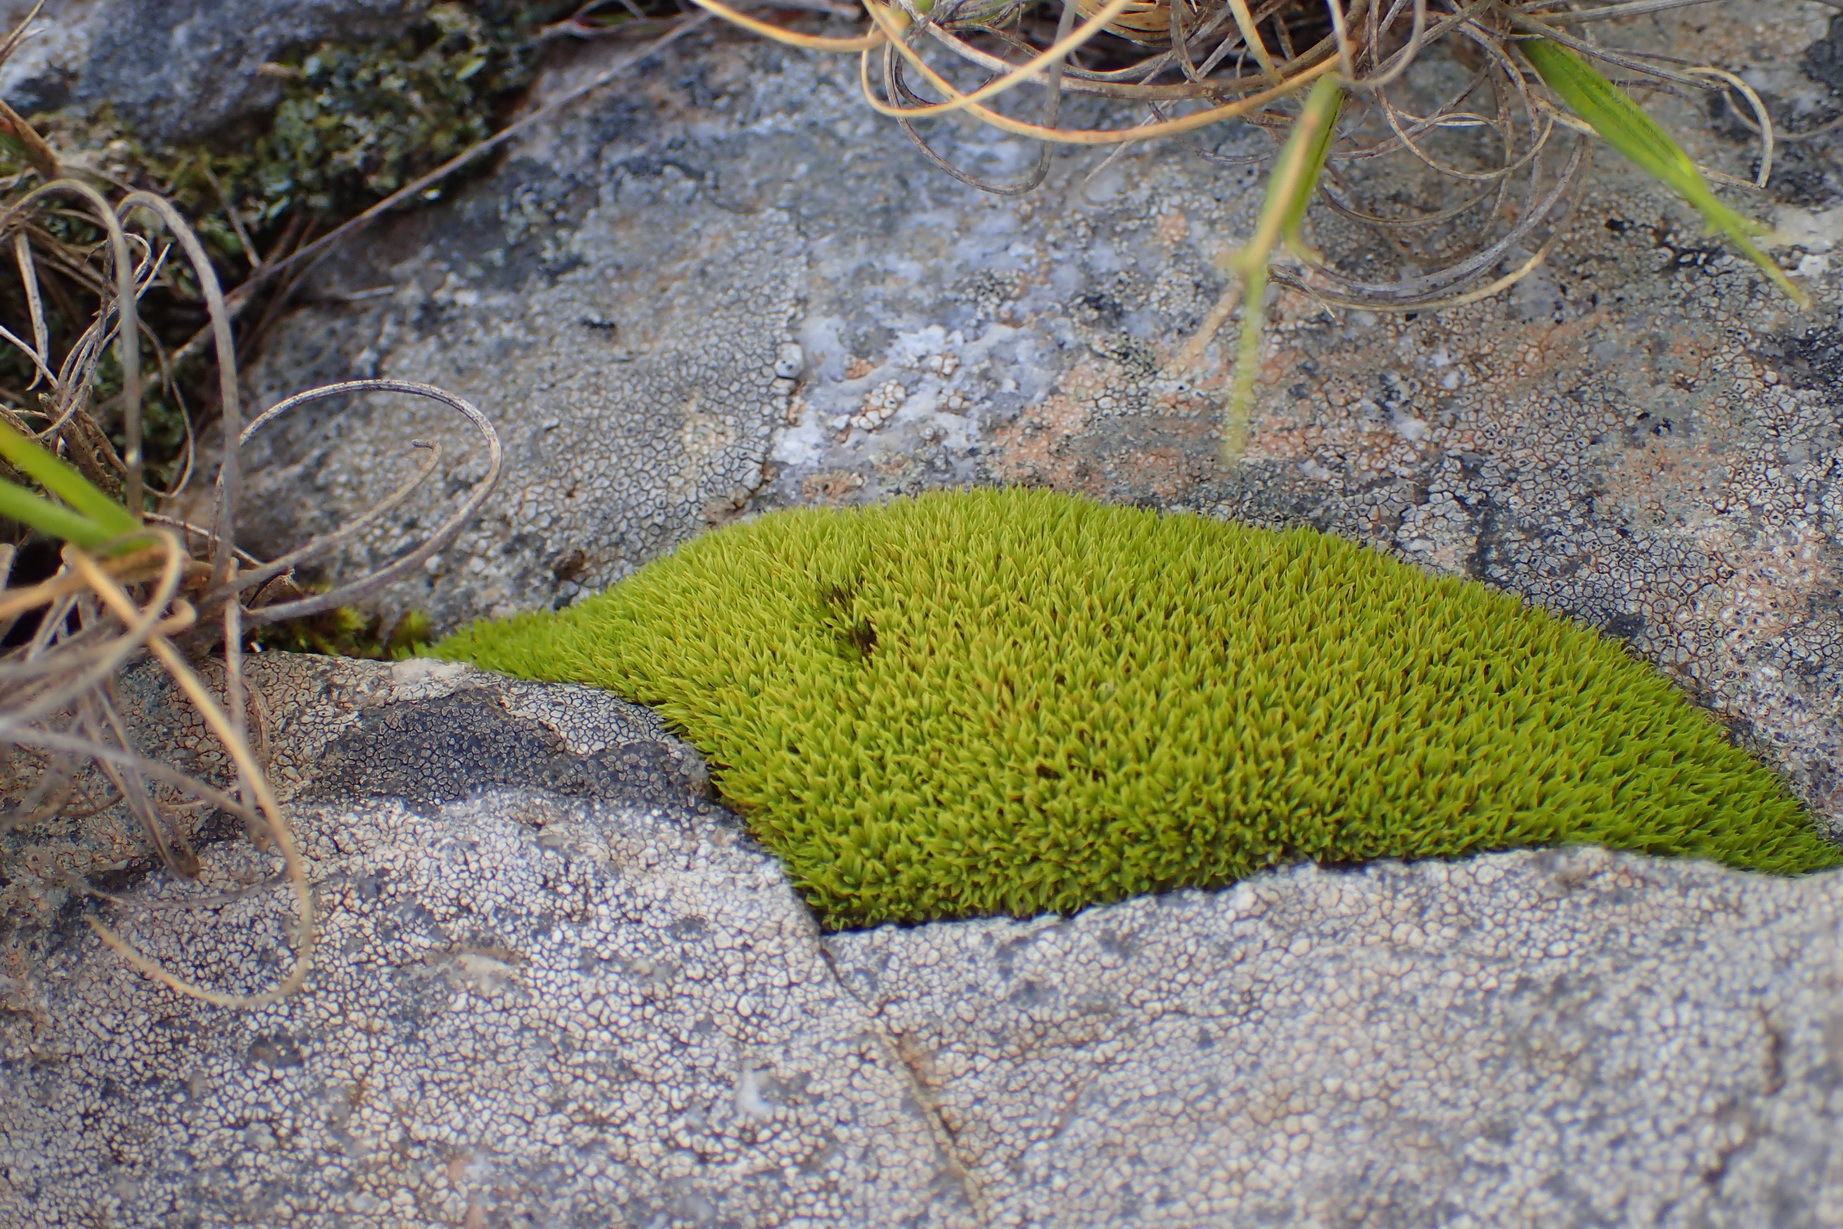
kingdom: Plantae
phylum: Bryophyta
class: Bryopsida
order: Dicranales
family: Hypodontiaceae
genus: Hypodontium
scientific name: Hypodontium pomiforme
